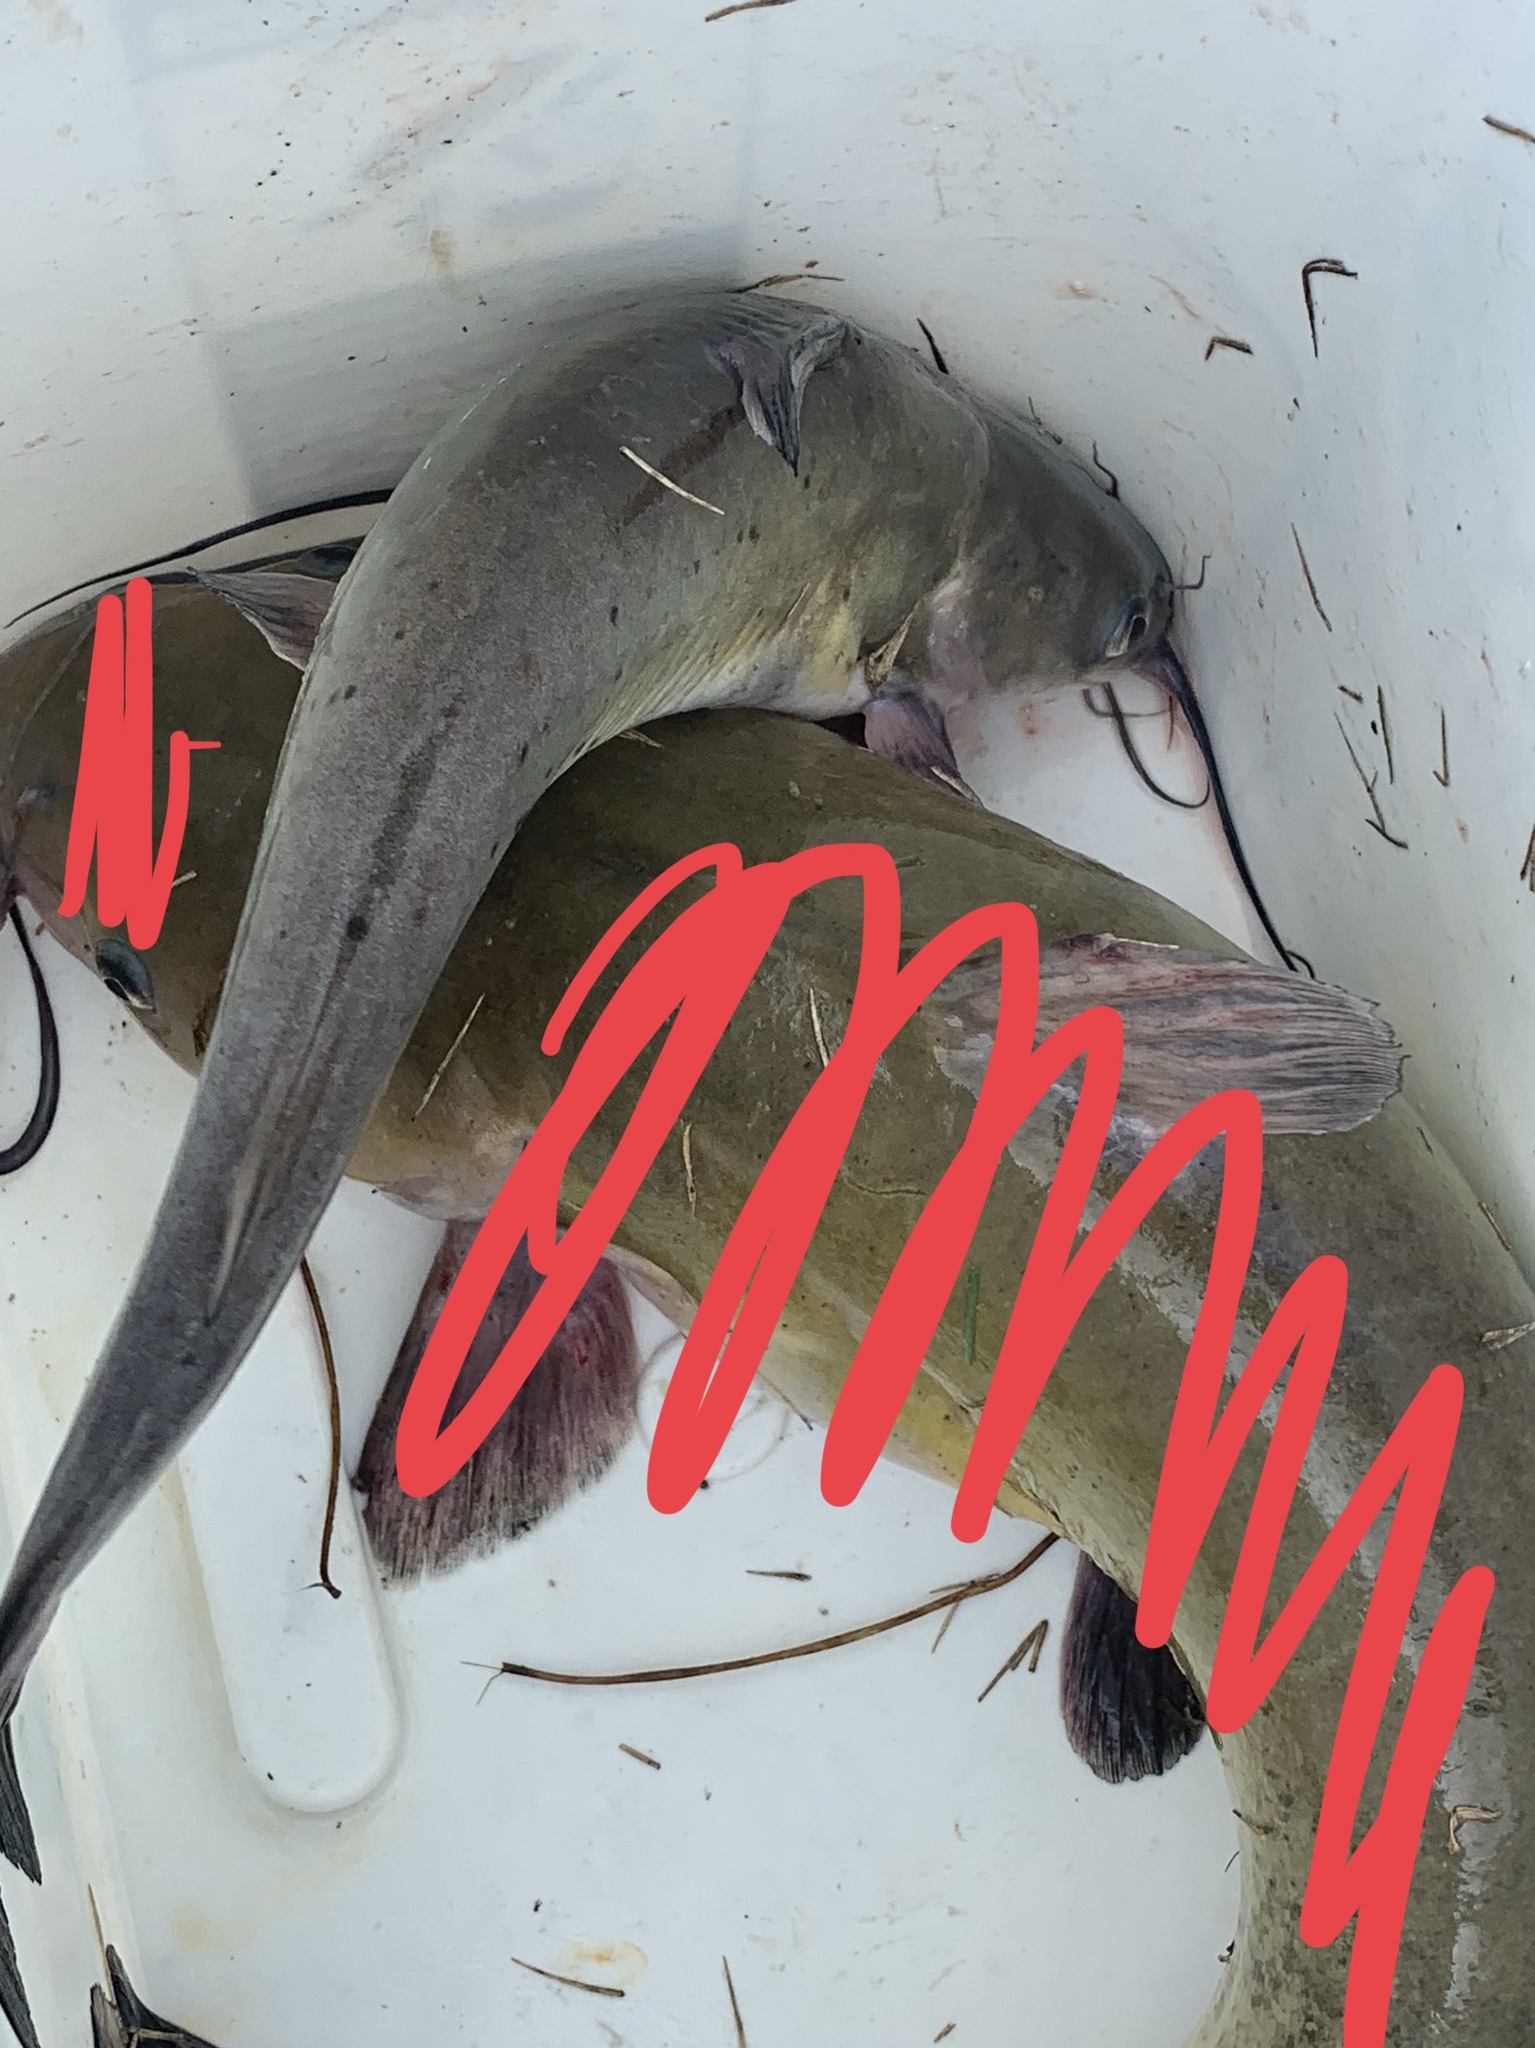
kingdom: Animalia
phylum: Chordata
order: Siluriformes
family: Ictaluridae
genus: Ictalurus
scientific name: Ictalurus punctatus
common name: Channel catfish
